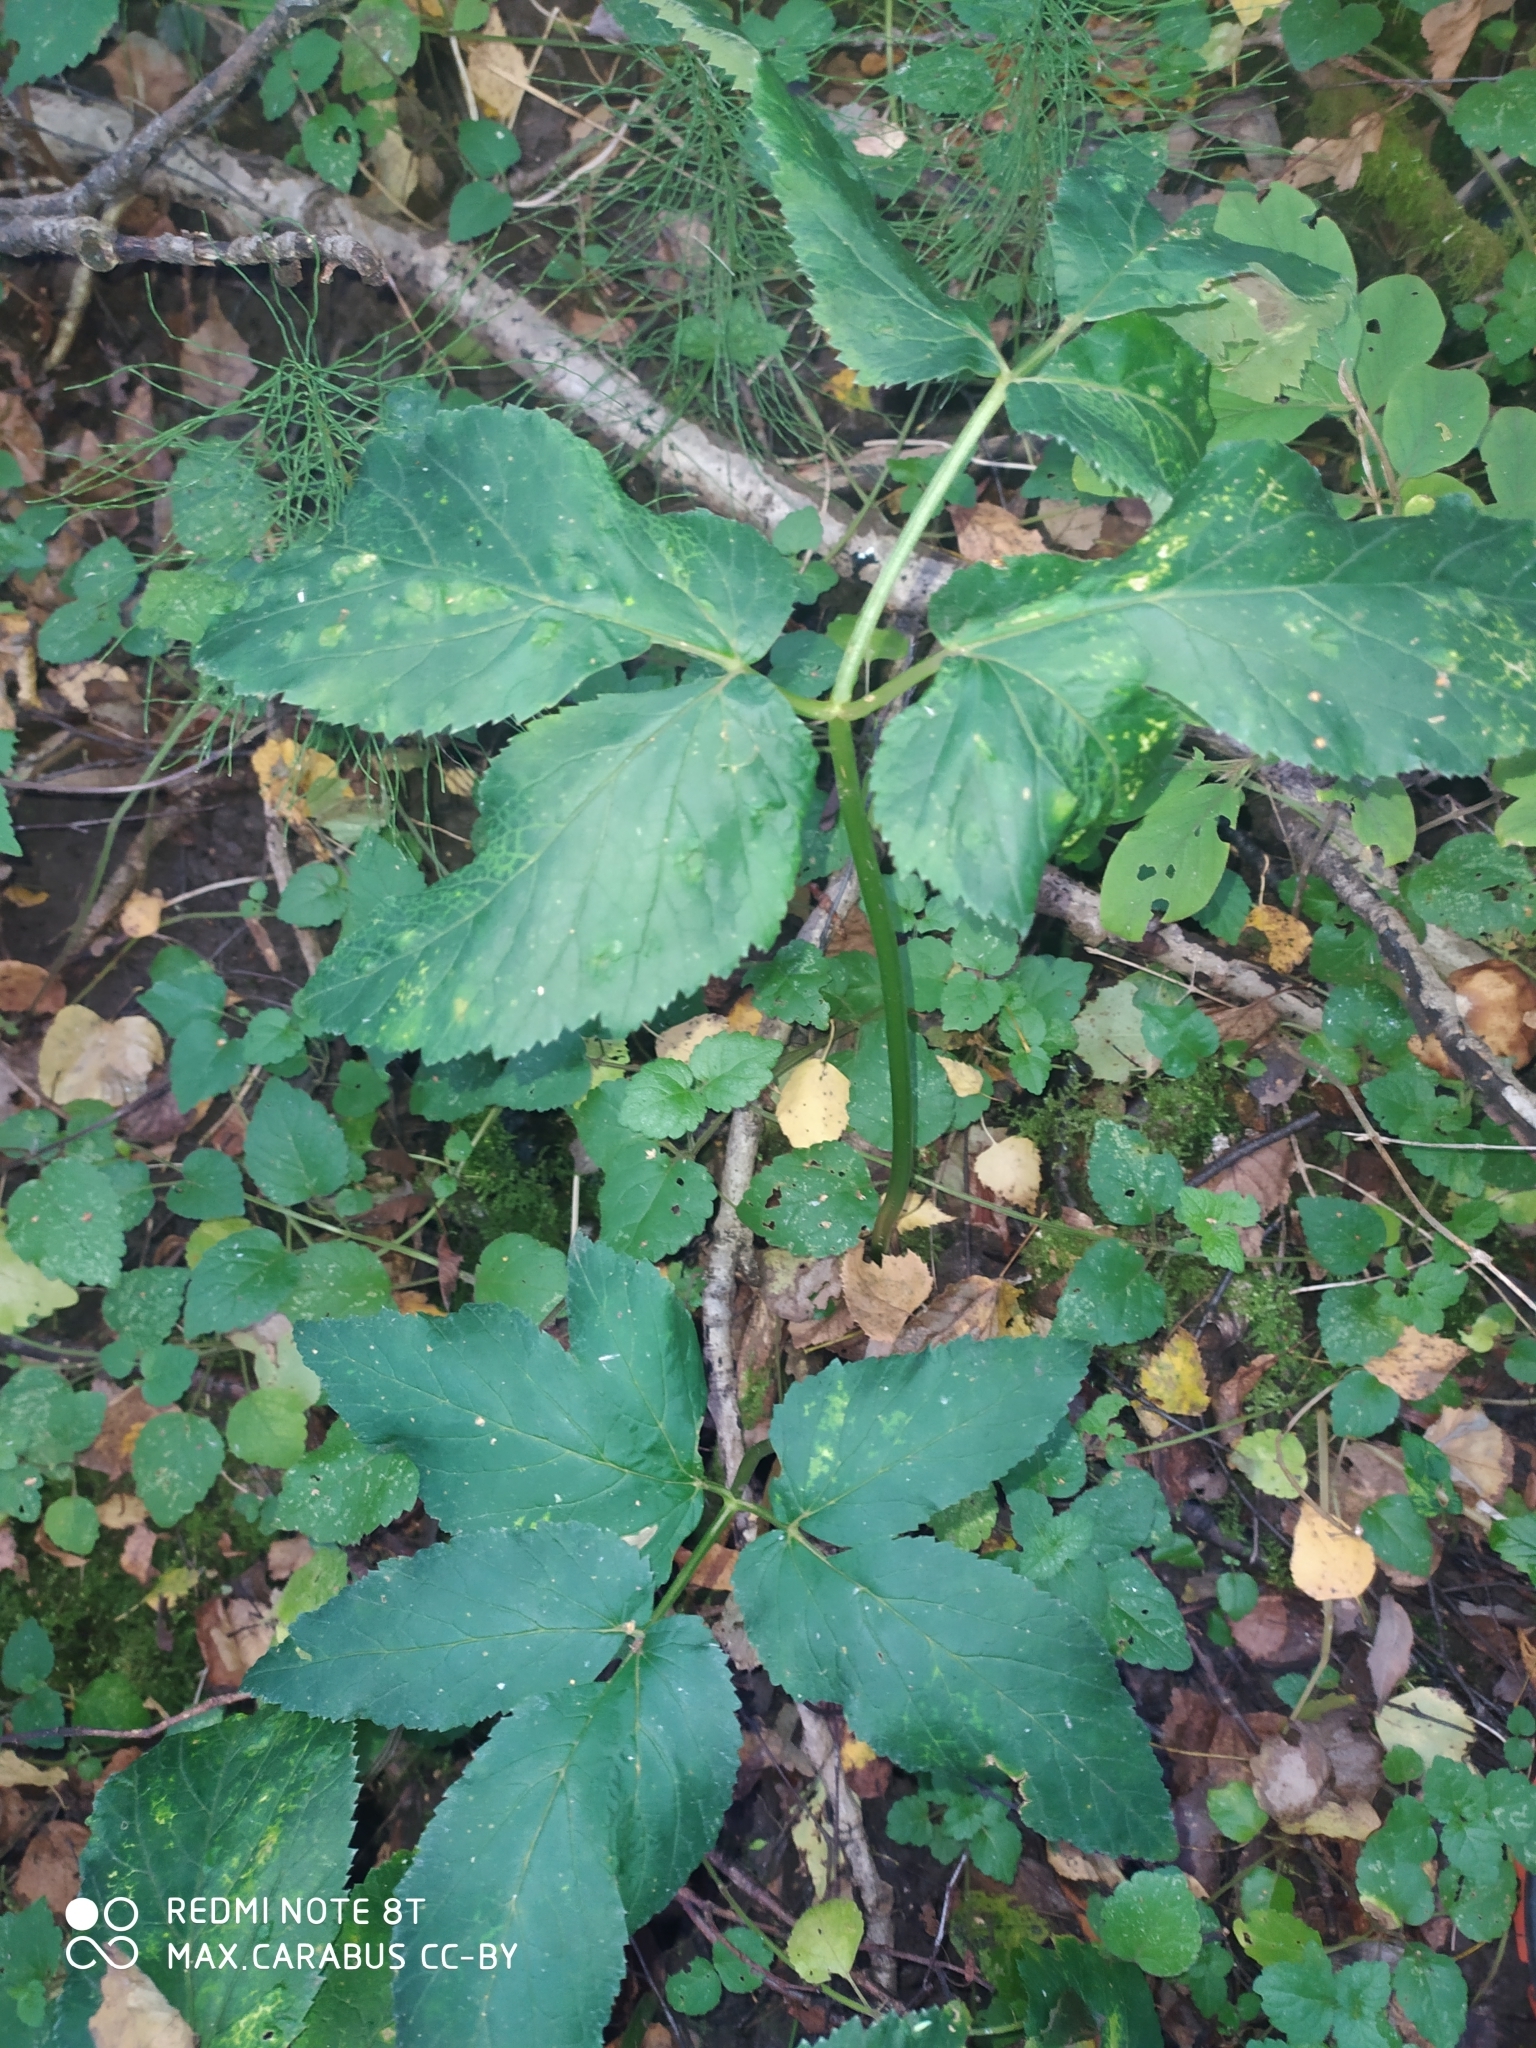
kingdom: Plantae
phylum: Tracheophyta
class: Magnoliopsida
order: Apiales
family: Apiaceae
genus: Aegopodium
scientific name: Aegopodium podagraria
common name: Ground-elder
